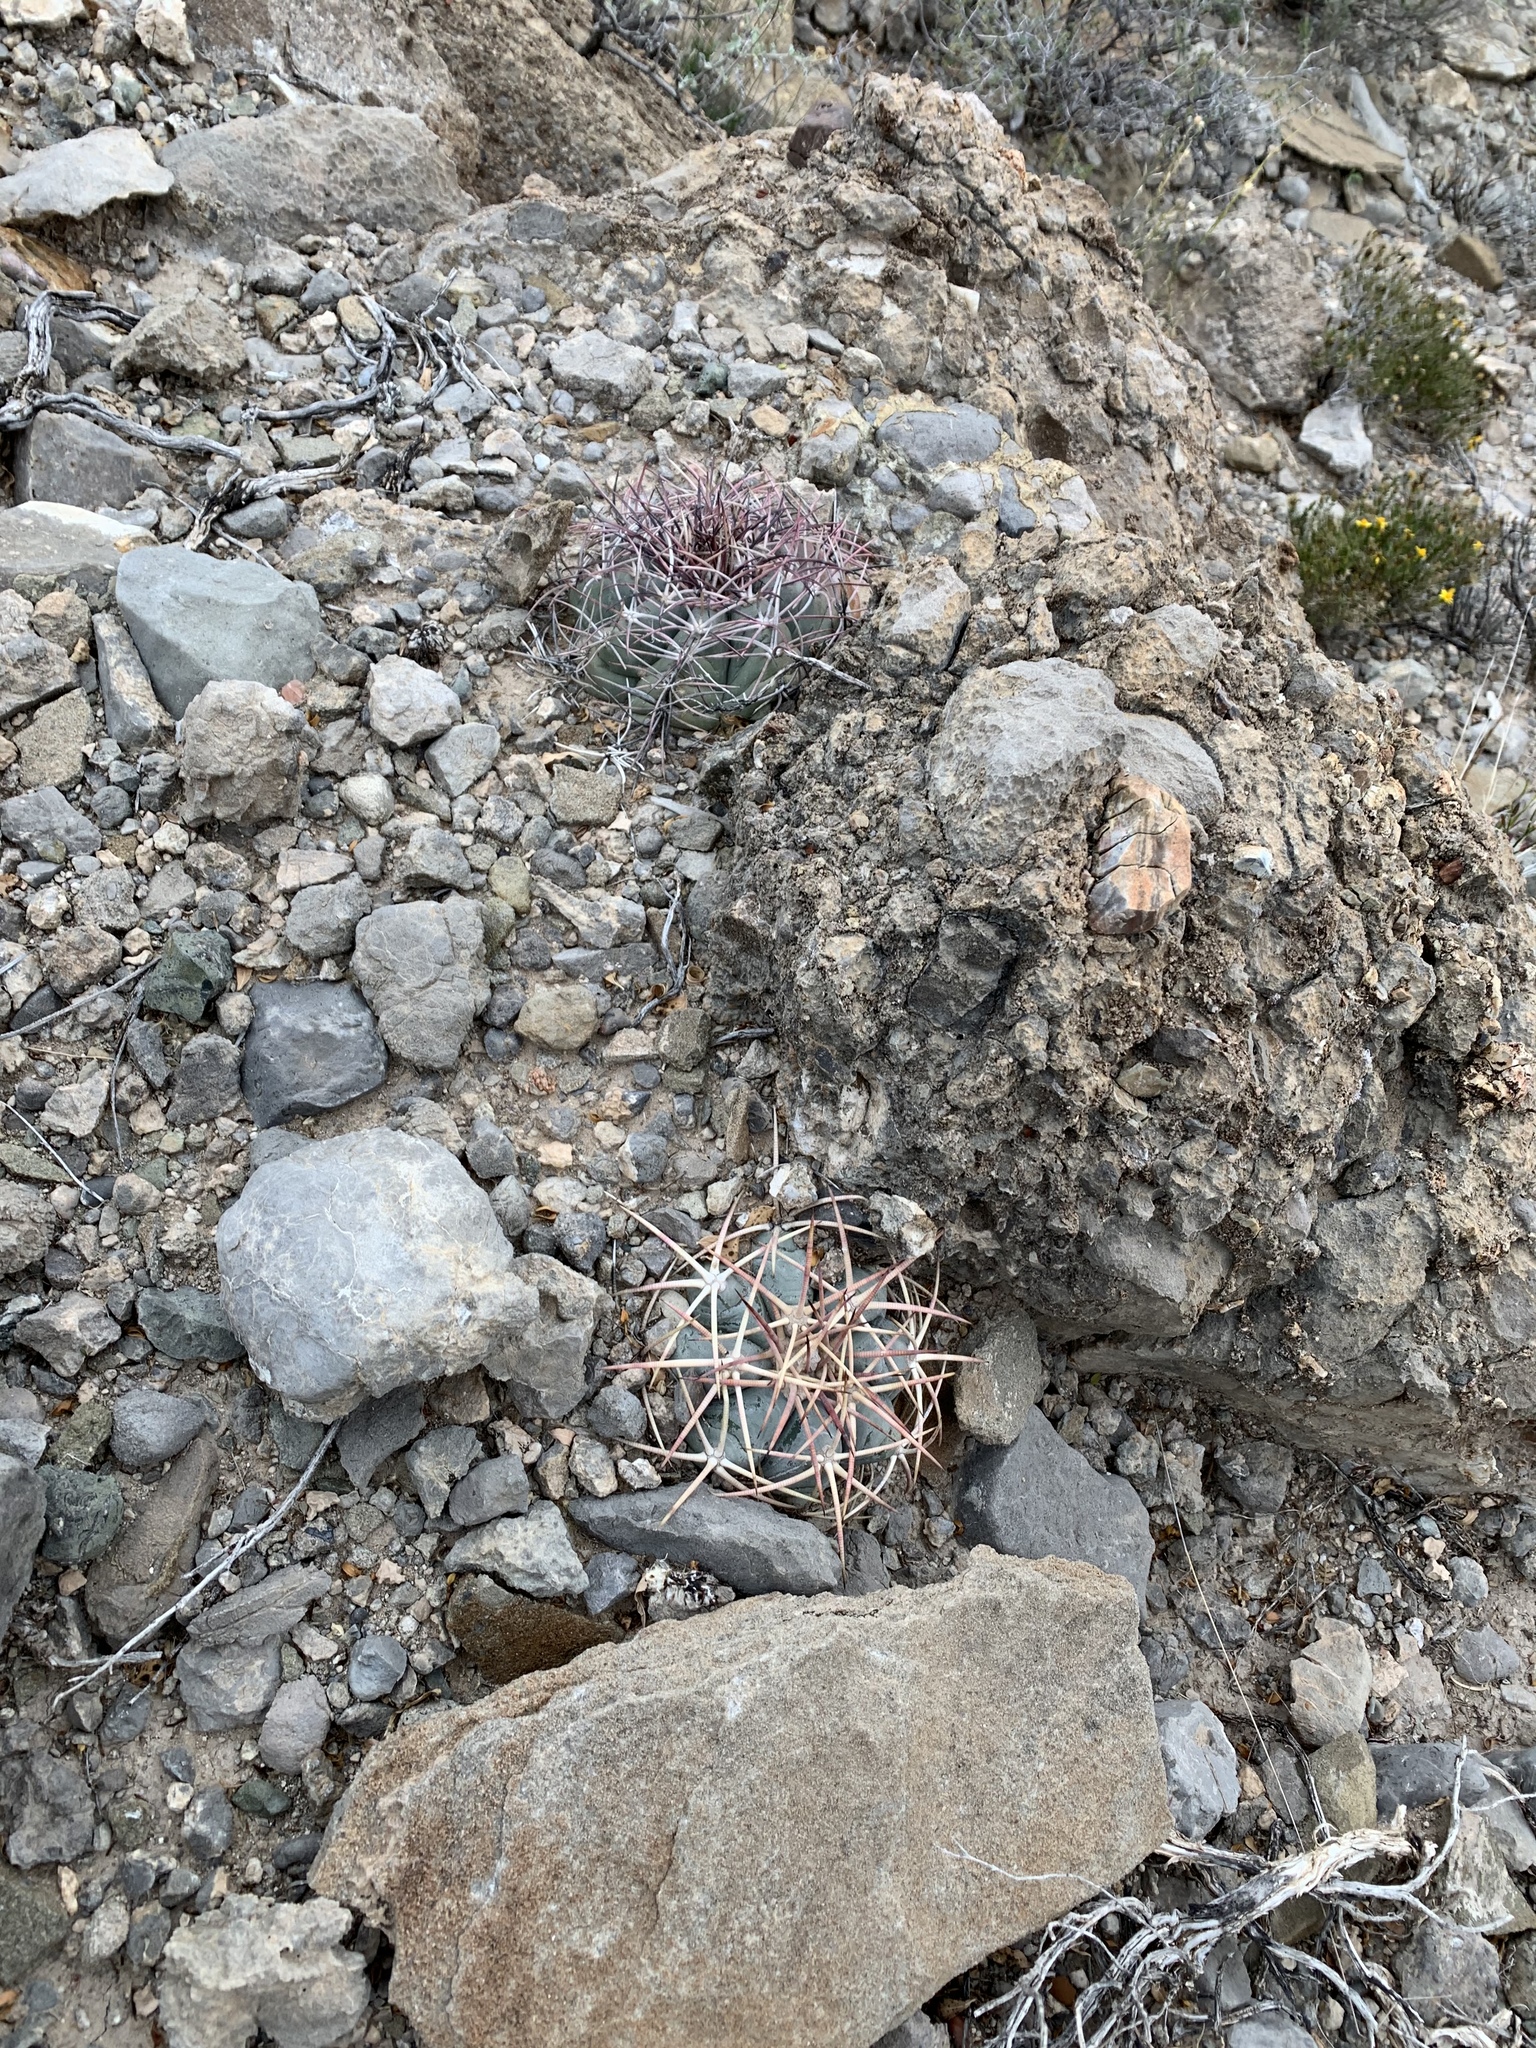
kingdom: Plantae
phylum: Tracheophyta
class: Magnoliopsida
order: Caryophyllales
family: Cactaceae
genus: Echinocactus
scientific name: Echinocactus horizonthalonius
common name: Devilshead
